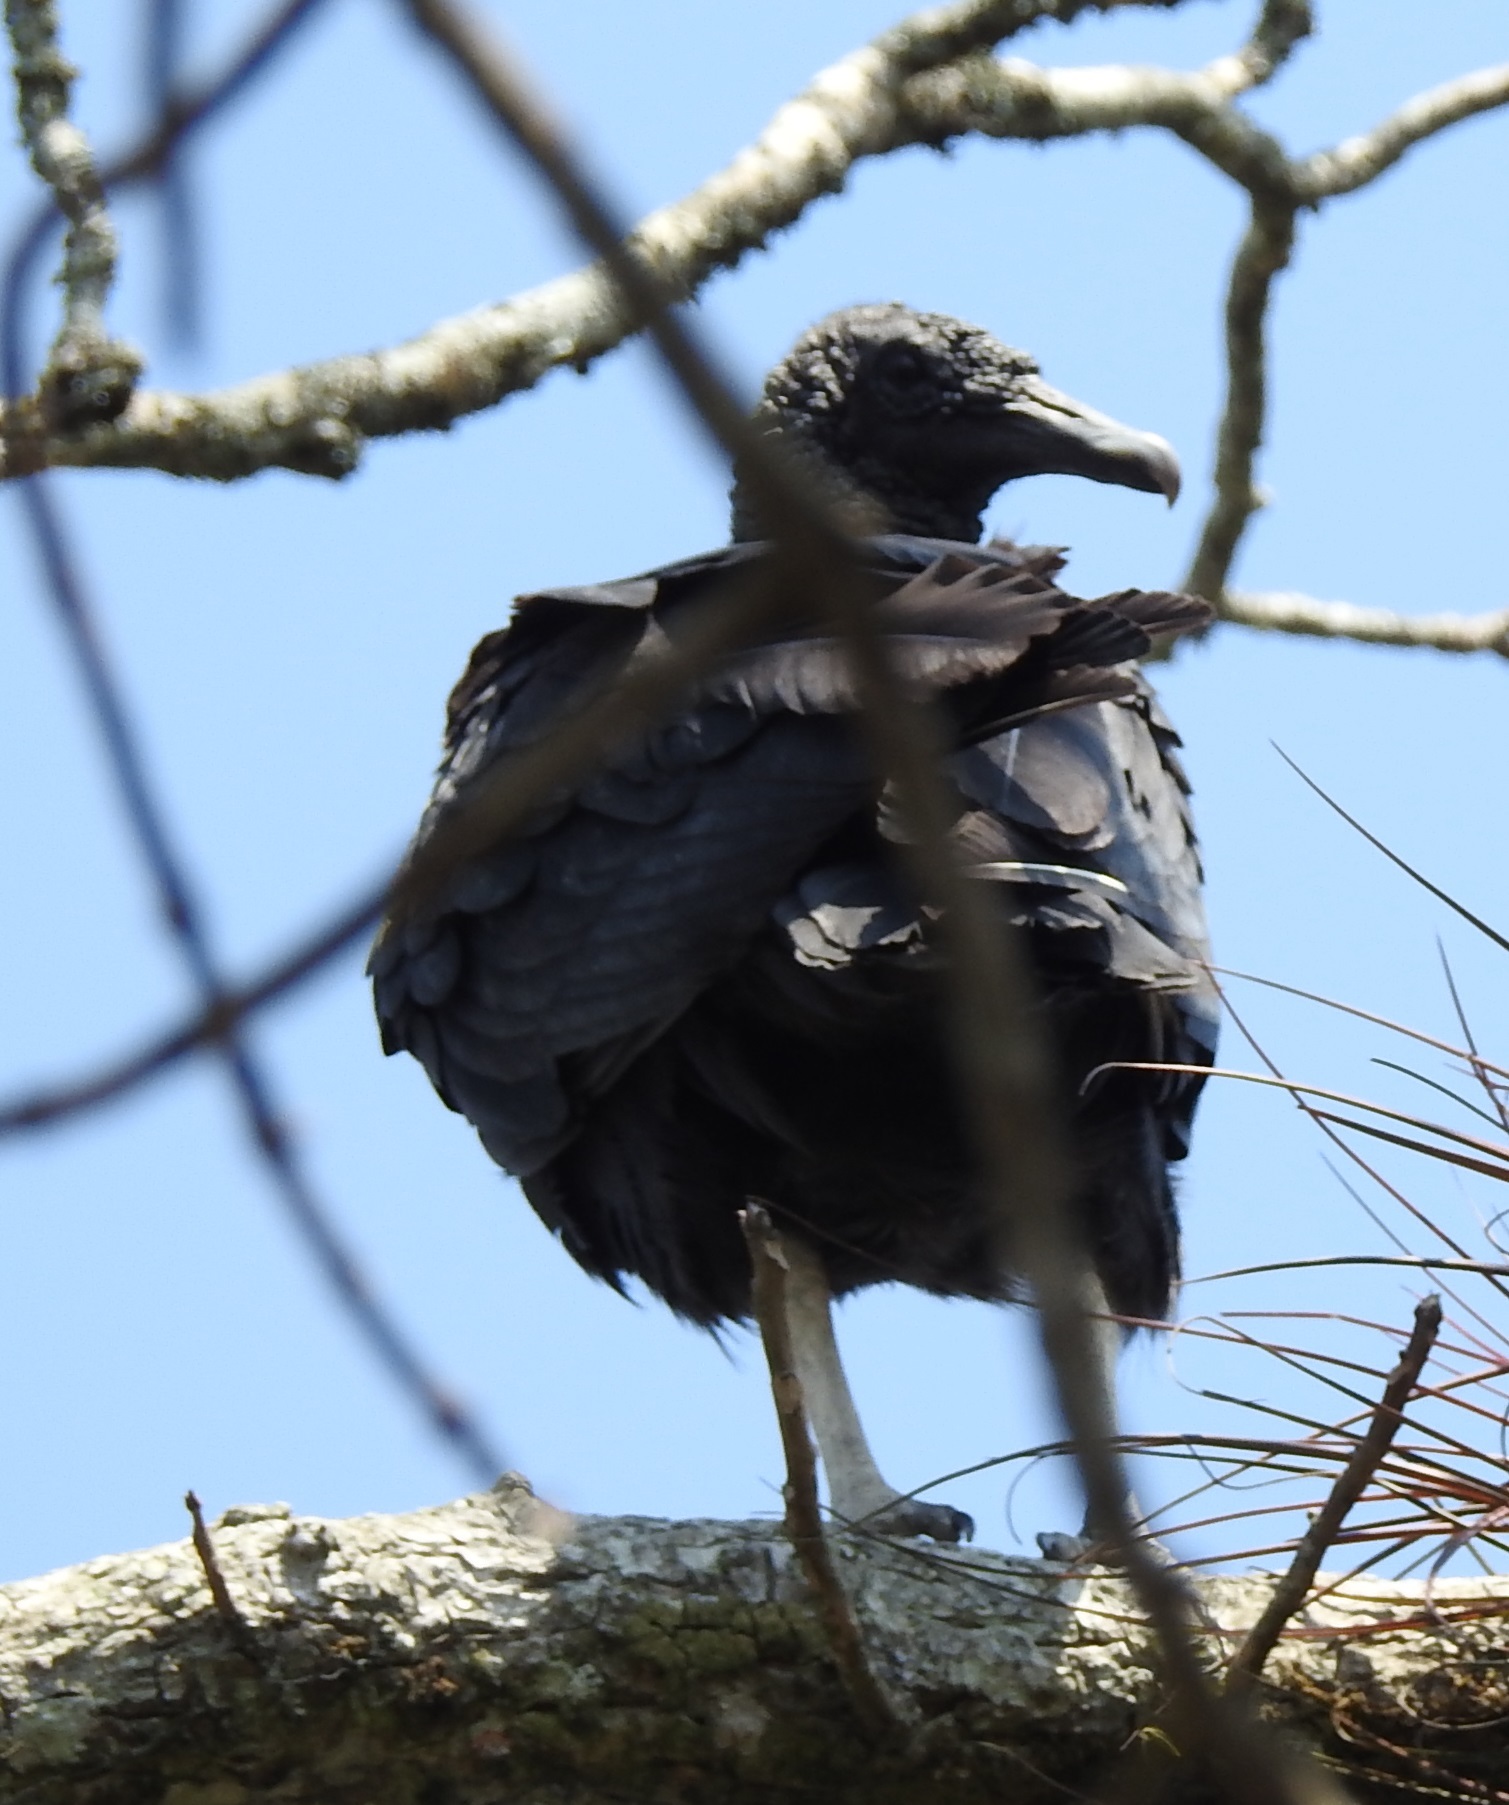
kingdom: Animalia
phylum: Chordata
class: Aves
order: Accipitriformes
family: Cathartidae
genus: Coragyps
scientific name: Coragyps atratus
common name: Black vulture
